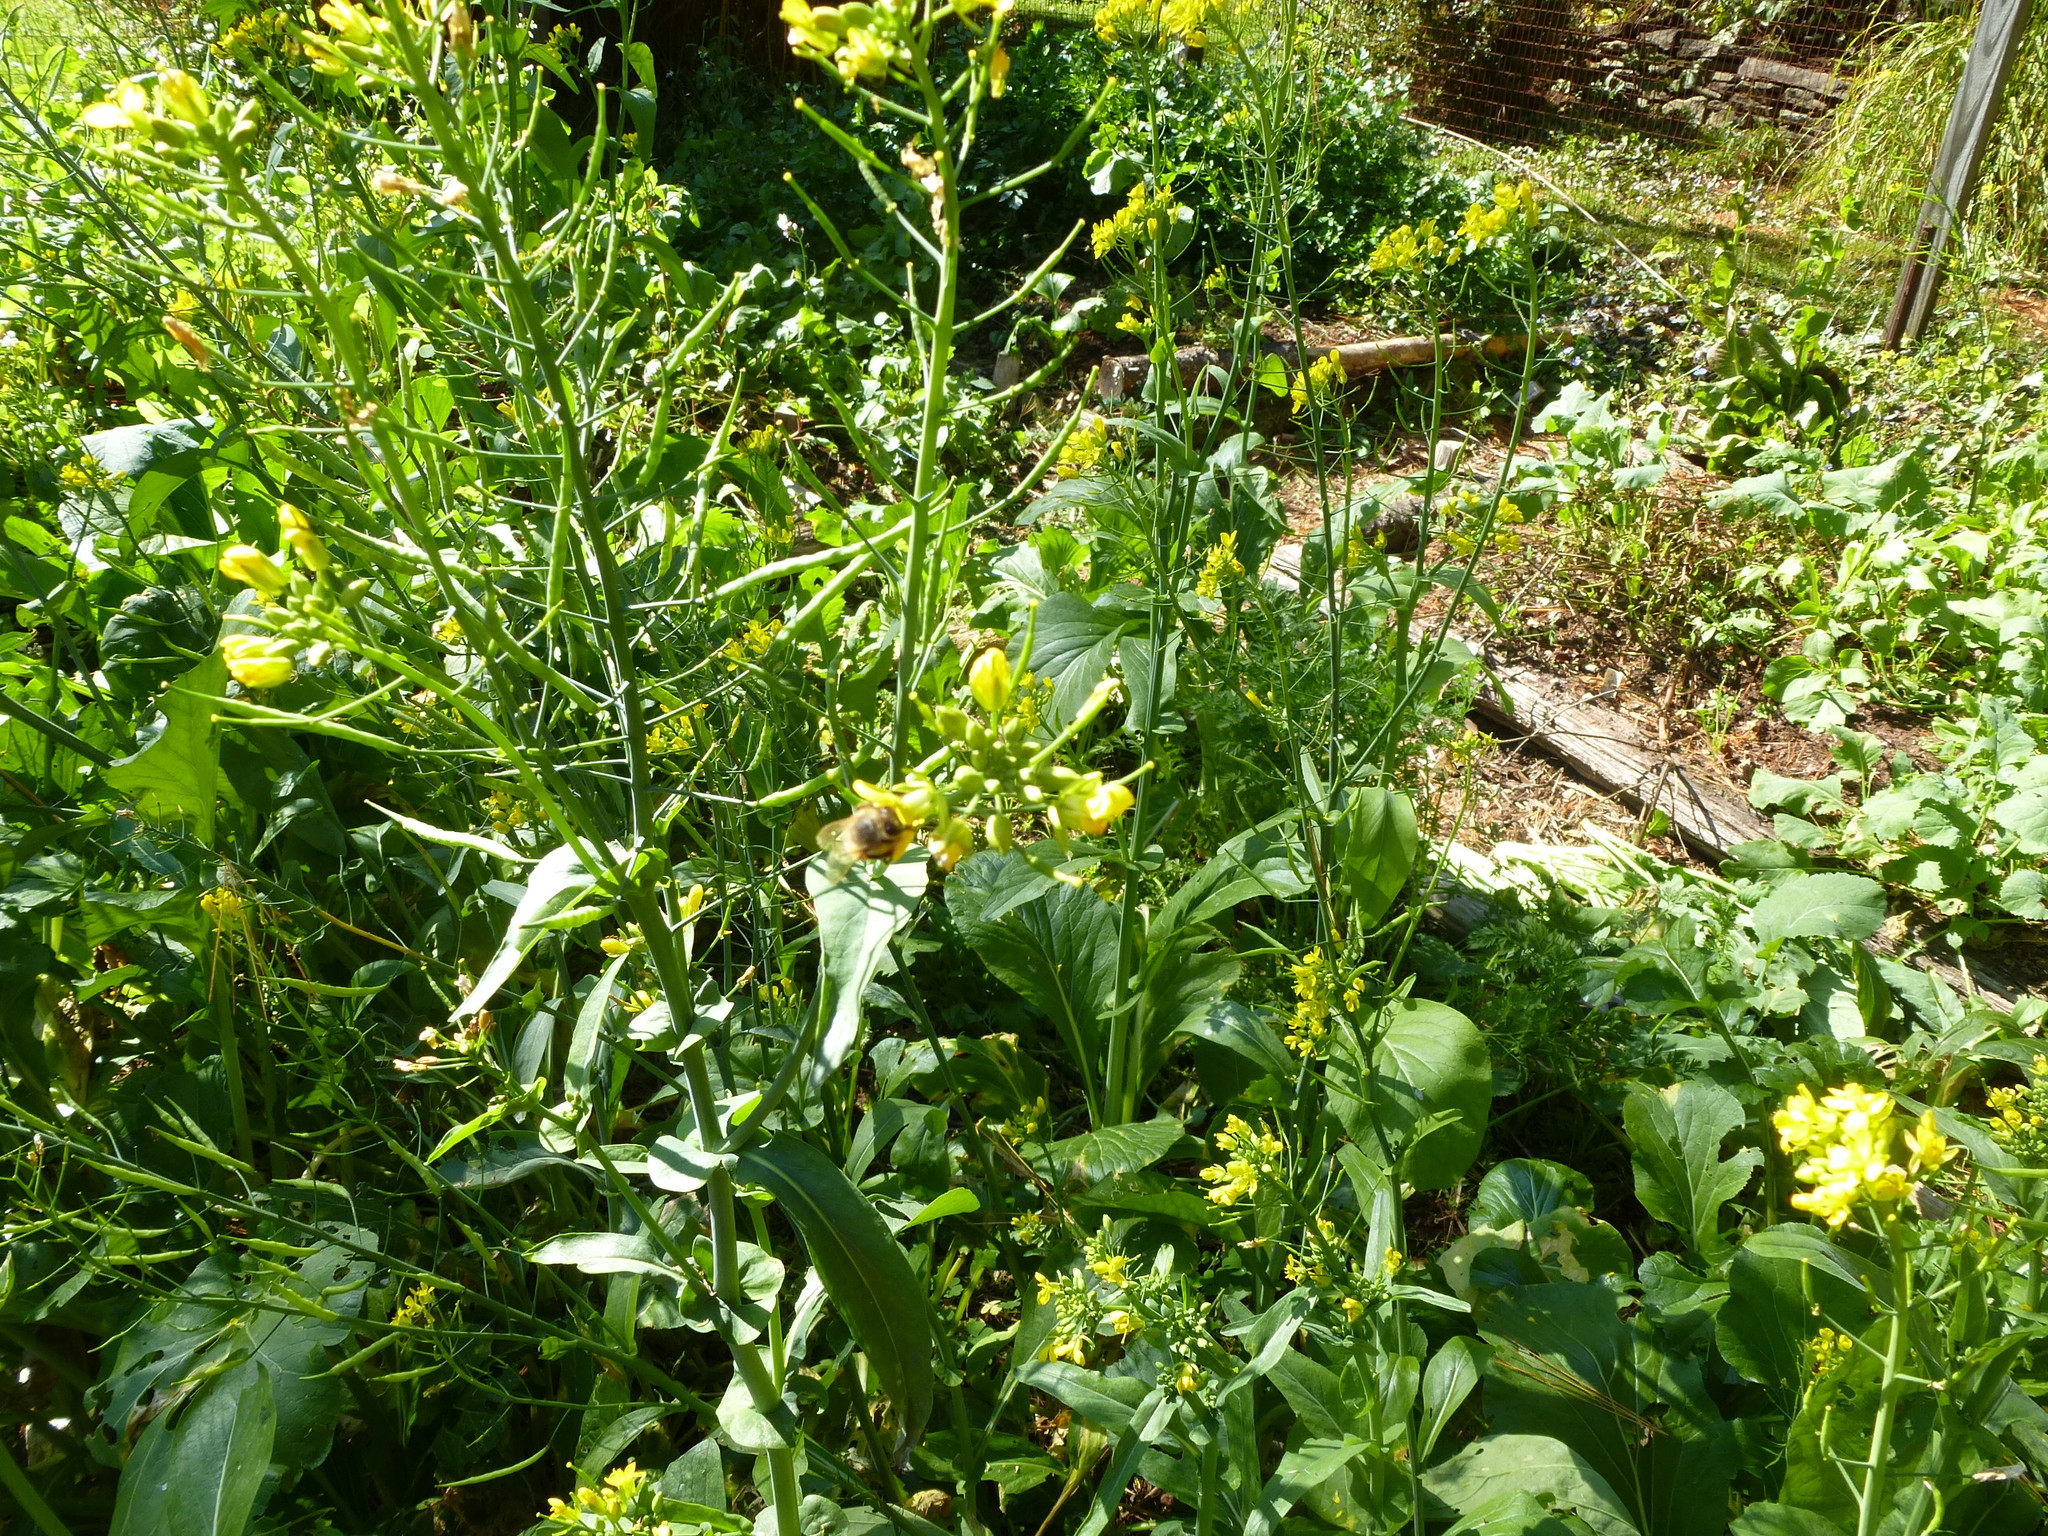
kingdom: Animalia
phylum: Arthropoda
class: Insecta
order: Hymenoptera
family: Apidae
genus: Apis
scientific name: Apis mellifera
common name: Honey bee
